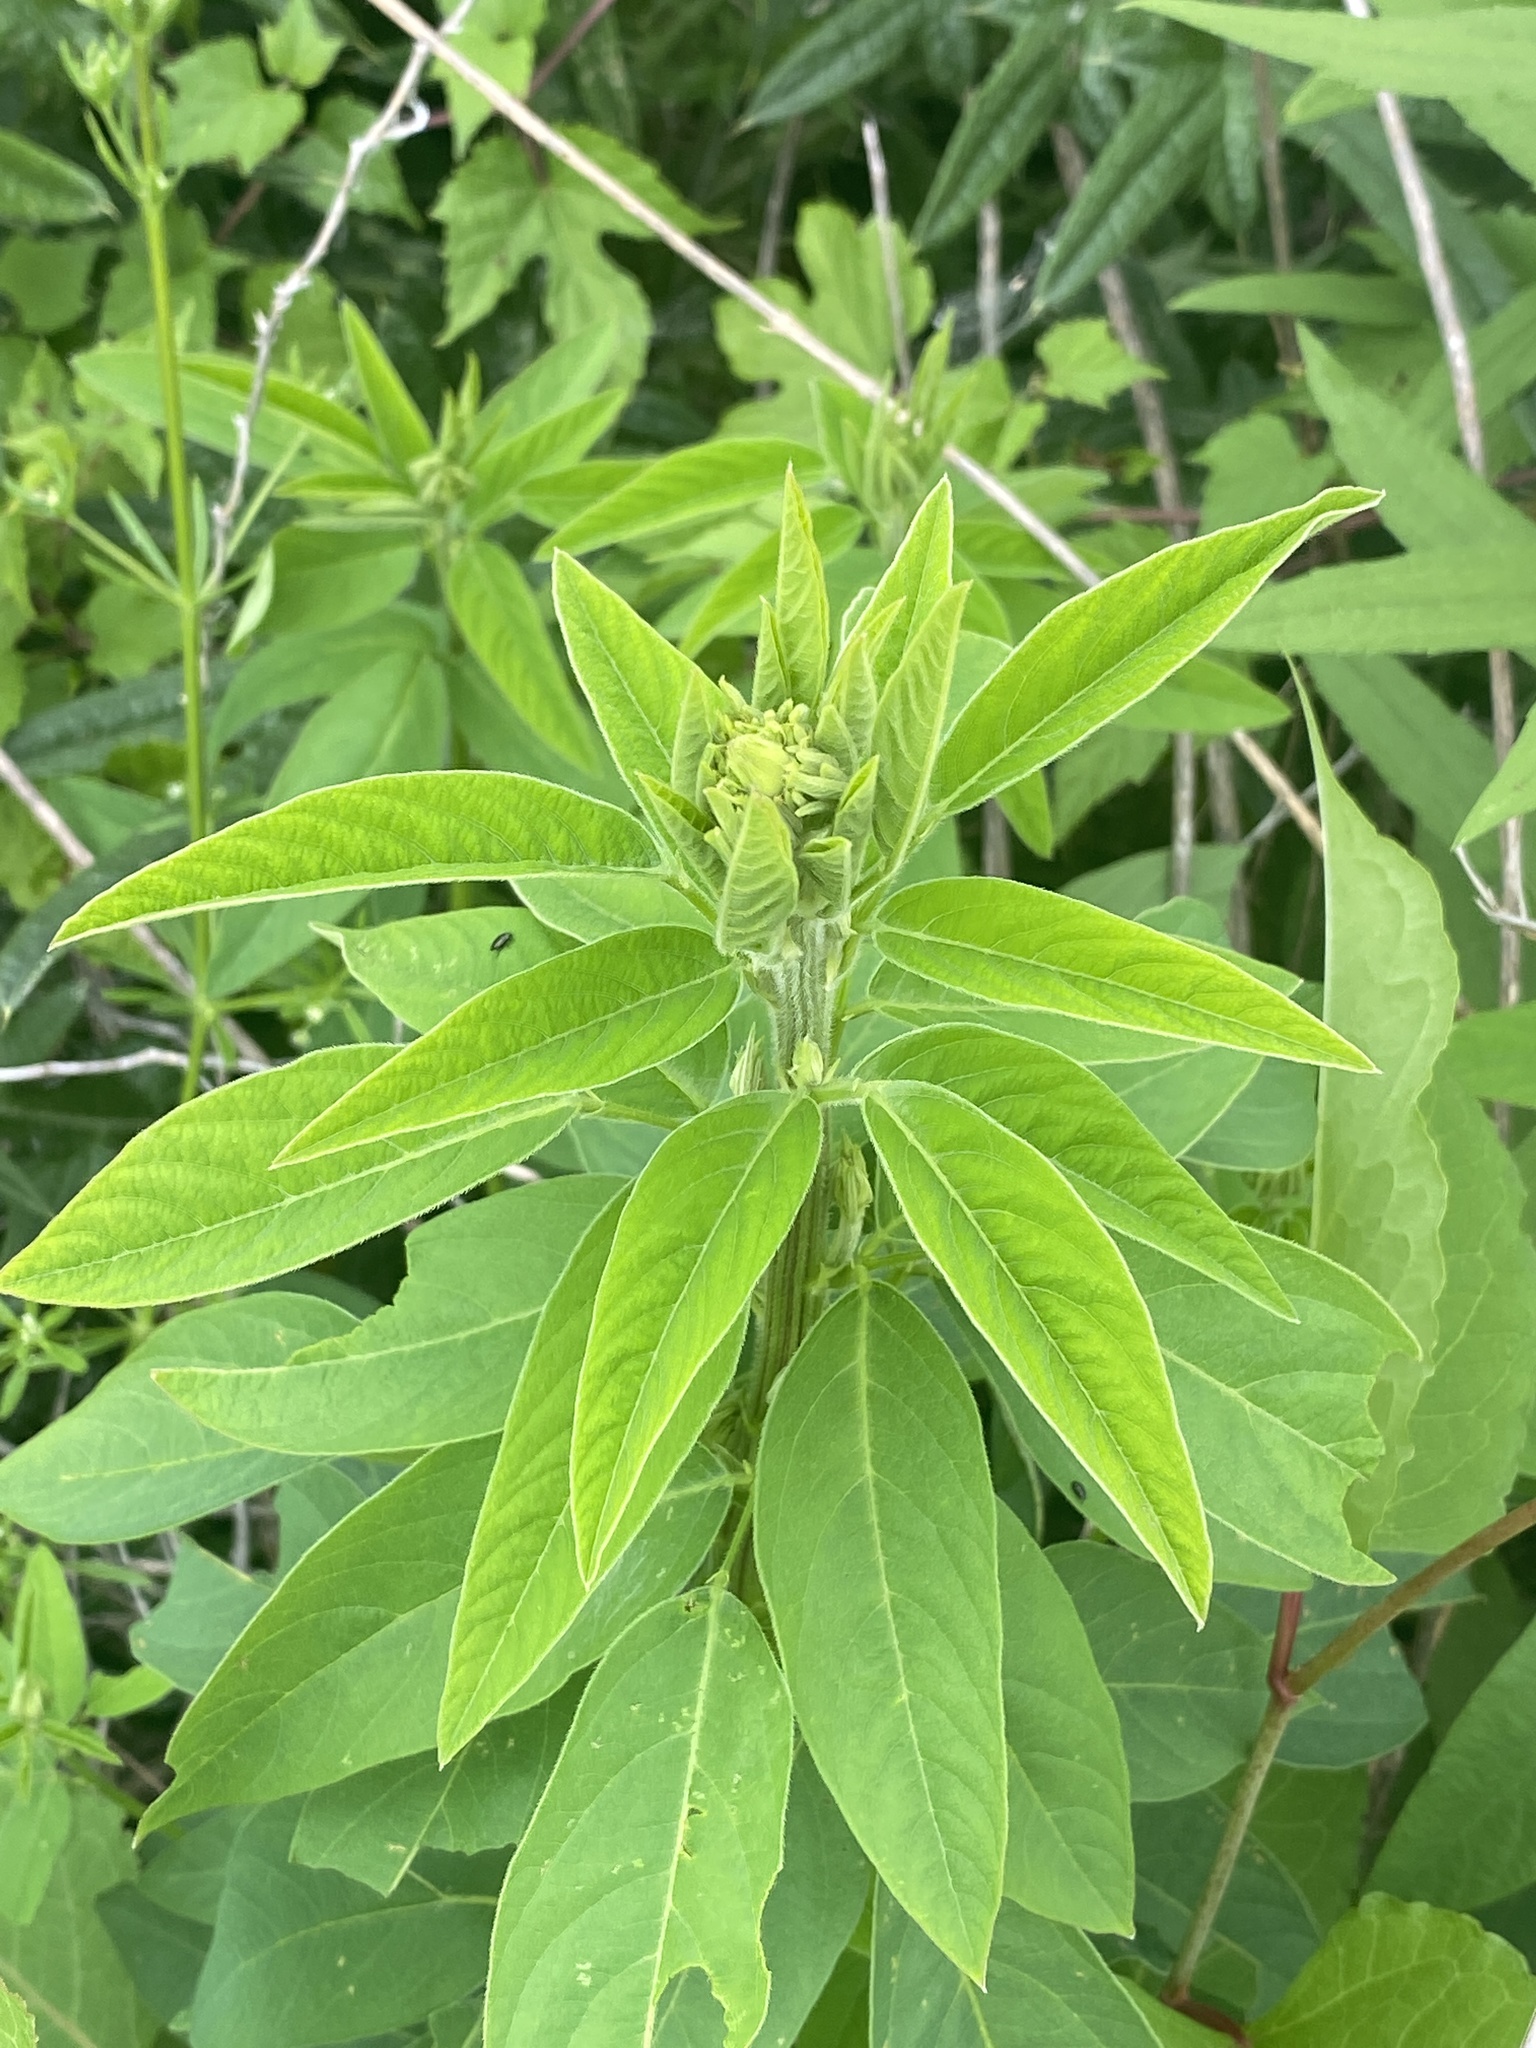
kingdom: Plantae
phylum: Tracheophyta
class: Magnoliopsida
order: Fabales
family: Fabaceae
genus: Desmodium
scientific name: Desmodium canadense
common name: Canada tick-trefoil
